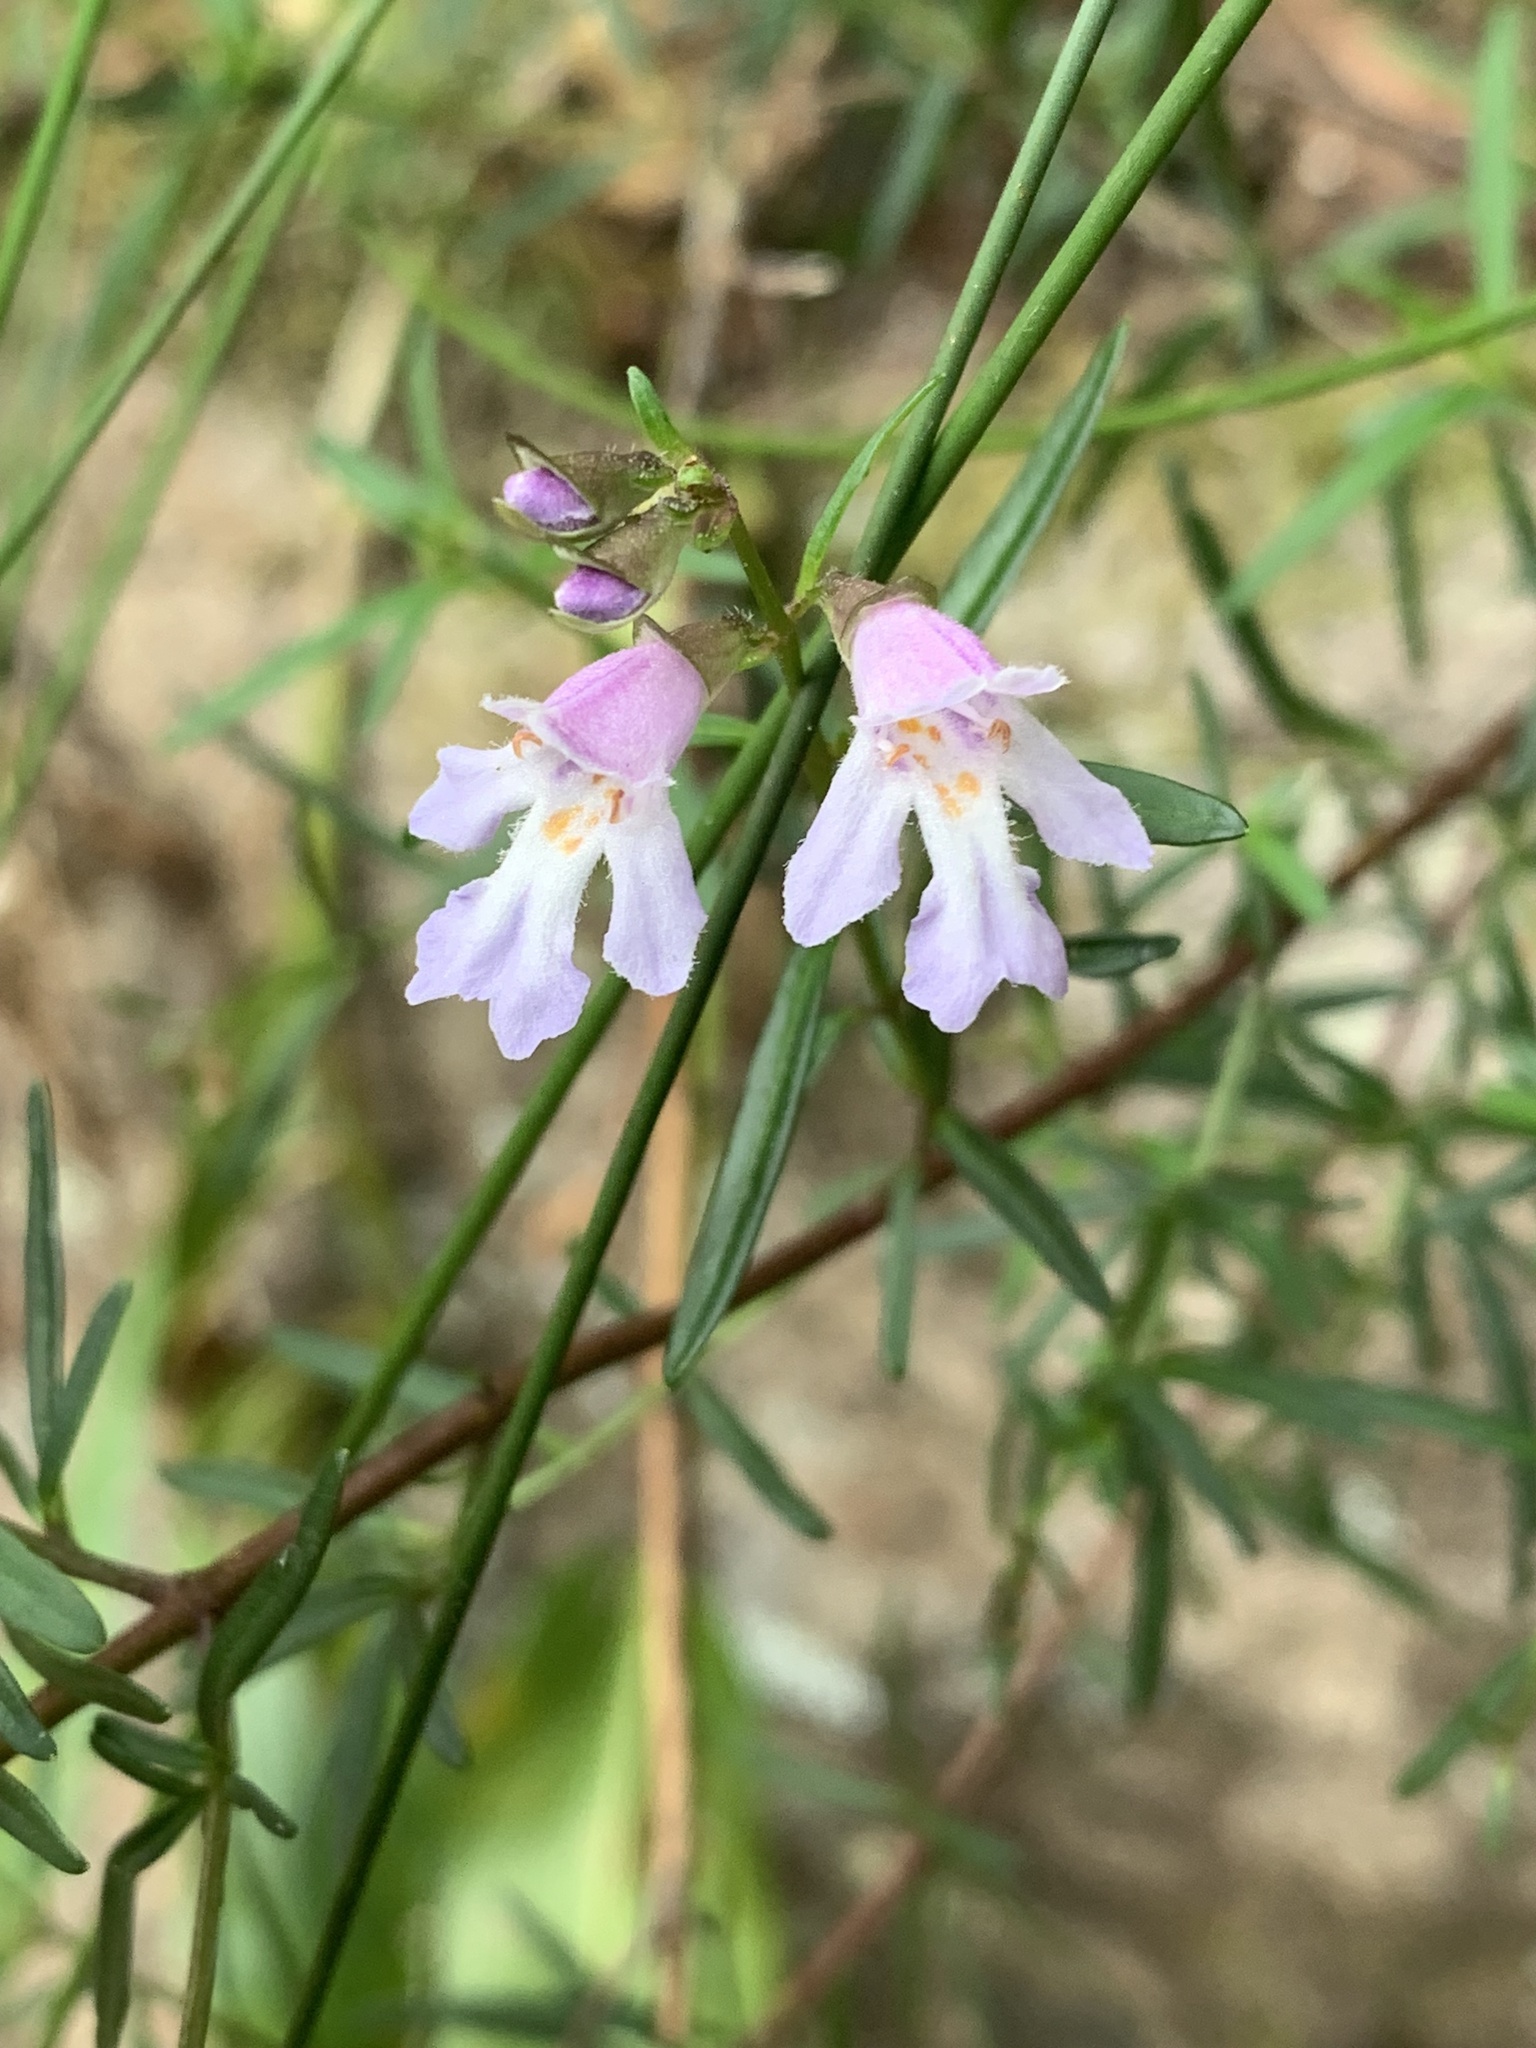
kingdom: Plantae
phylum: Tracheophyta
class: Magnoliopsida
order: Lamiales
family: Lamiaceae
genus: Prostanthera
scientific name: Prostanthera linearis
